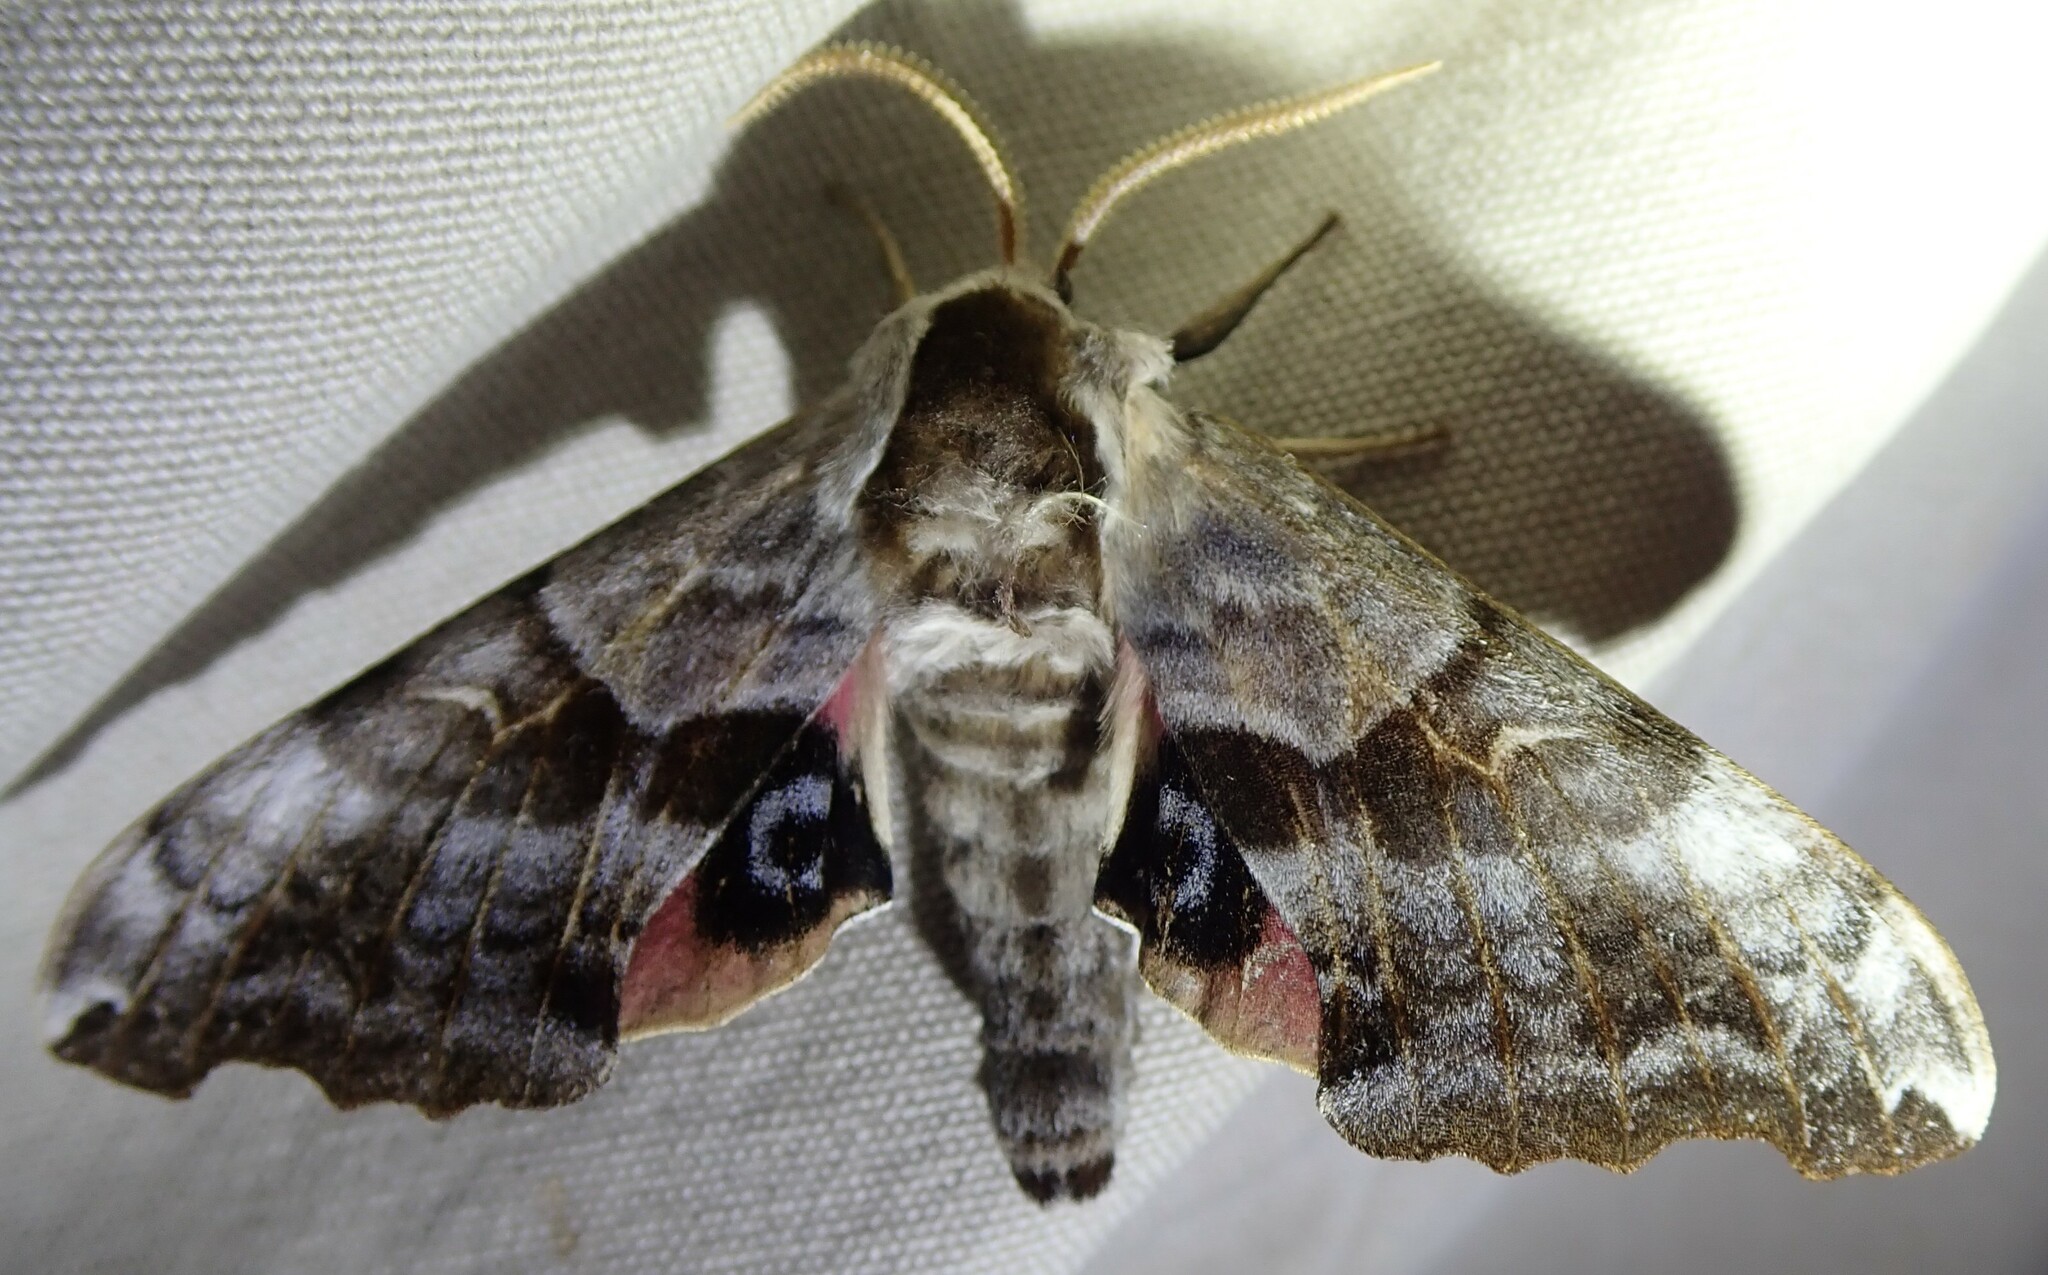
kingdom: Animalia
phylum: Arthropoda
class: Insecta
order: Lepidoptera
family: Sphingidae
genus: Smerinthus
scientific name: Smerinthus cerisyi
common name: Cerisy's sphinx moth
